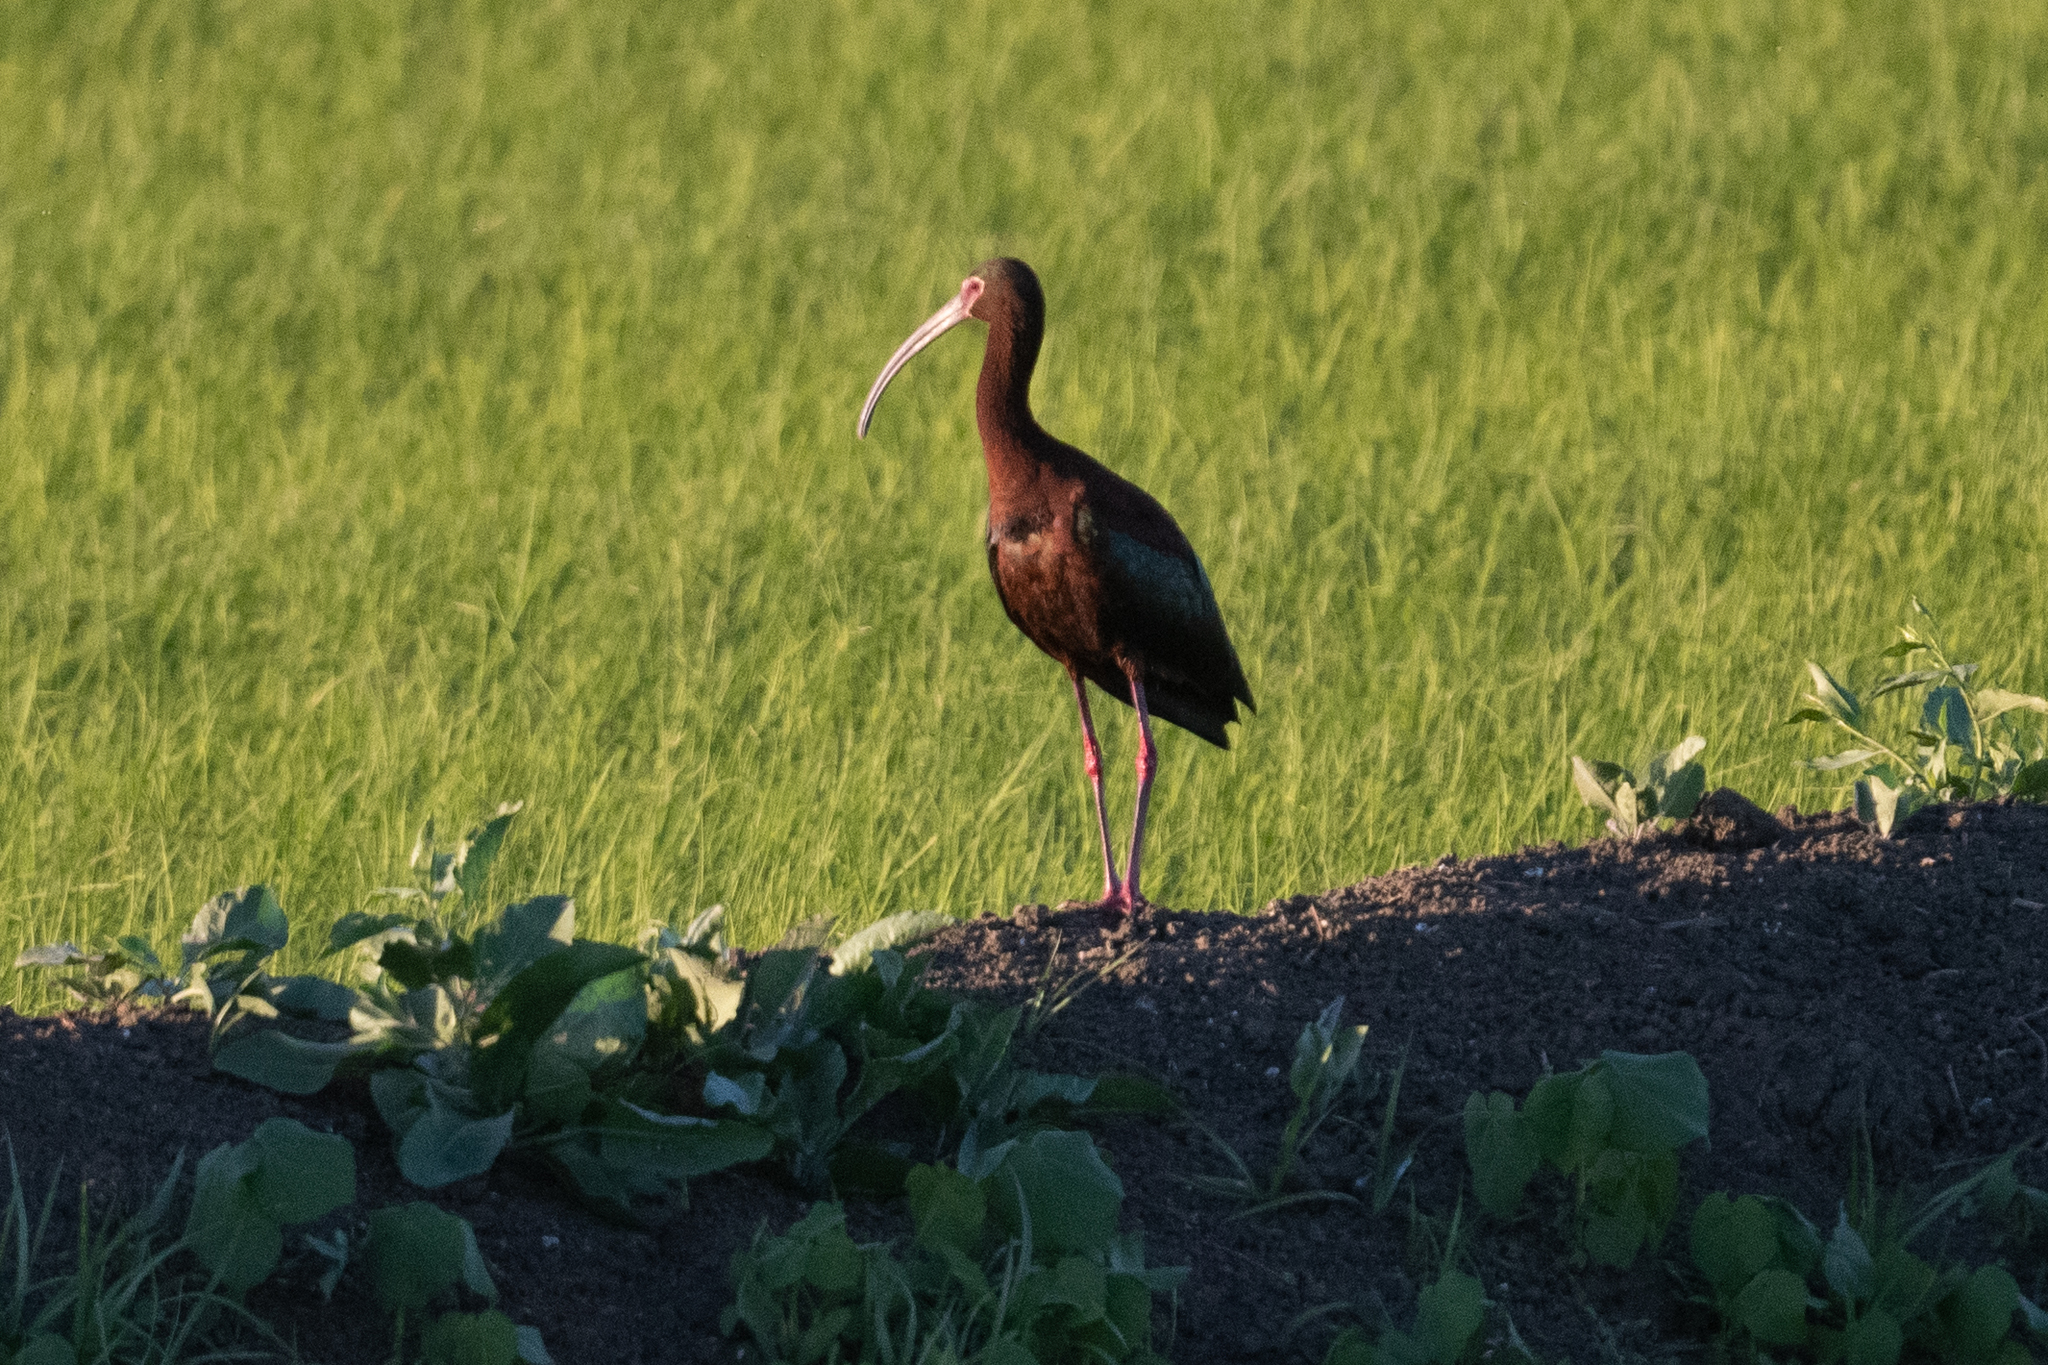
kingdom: Animalia
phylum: Chordata
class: Aves
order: Pelecaniformes
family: Threskiornithidae
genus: Plegadis
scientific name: Plegadis chihi
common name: White-faced ibis
